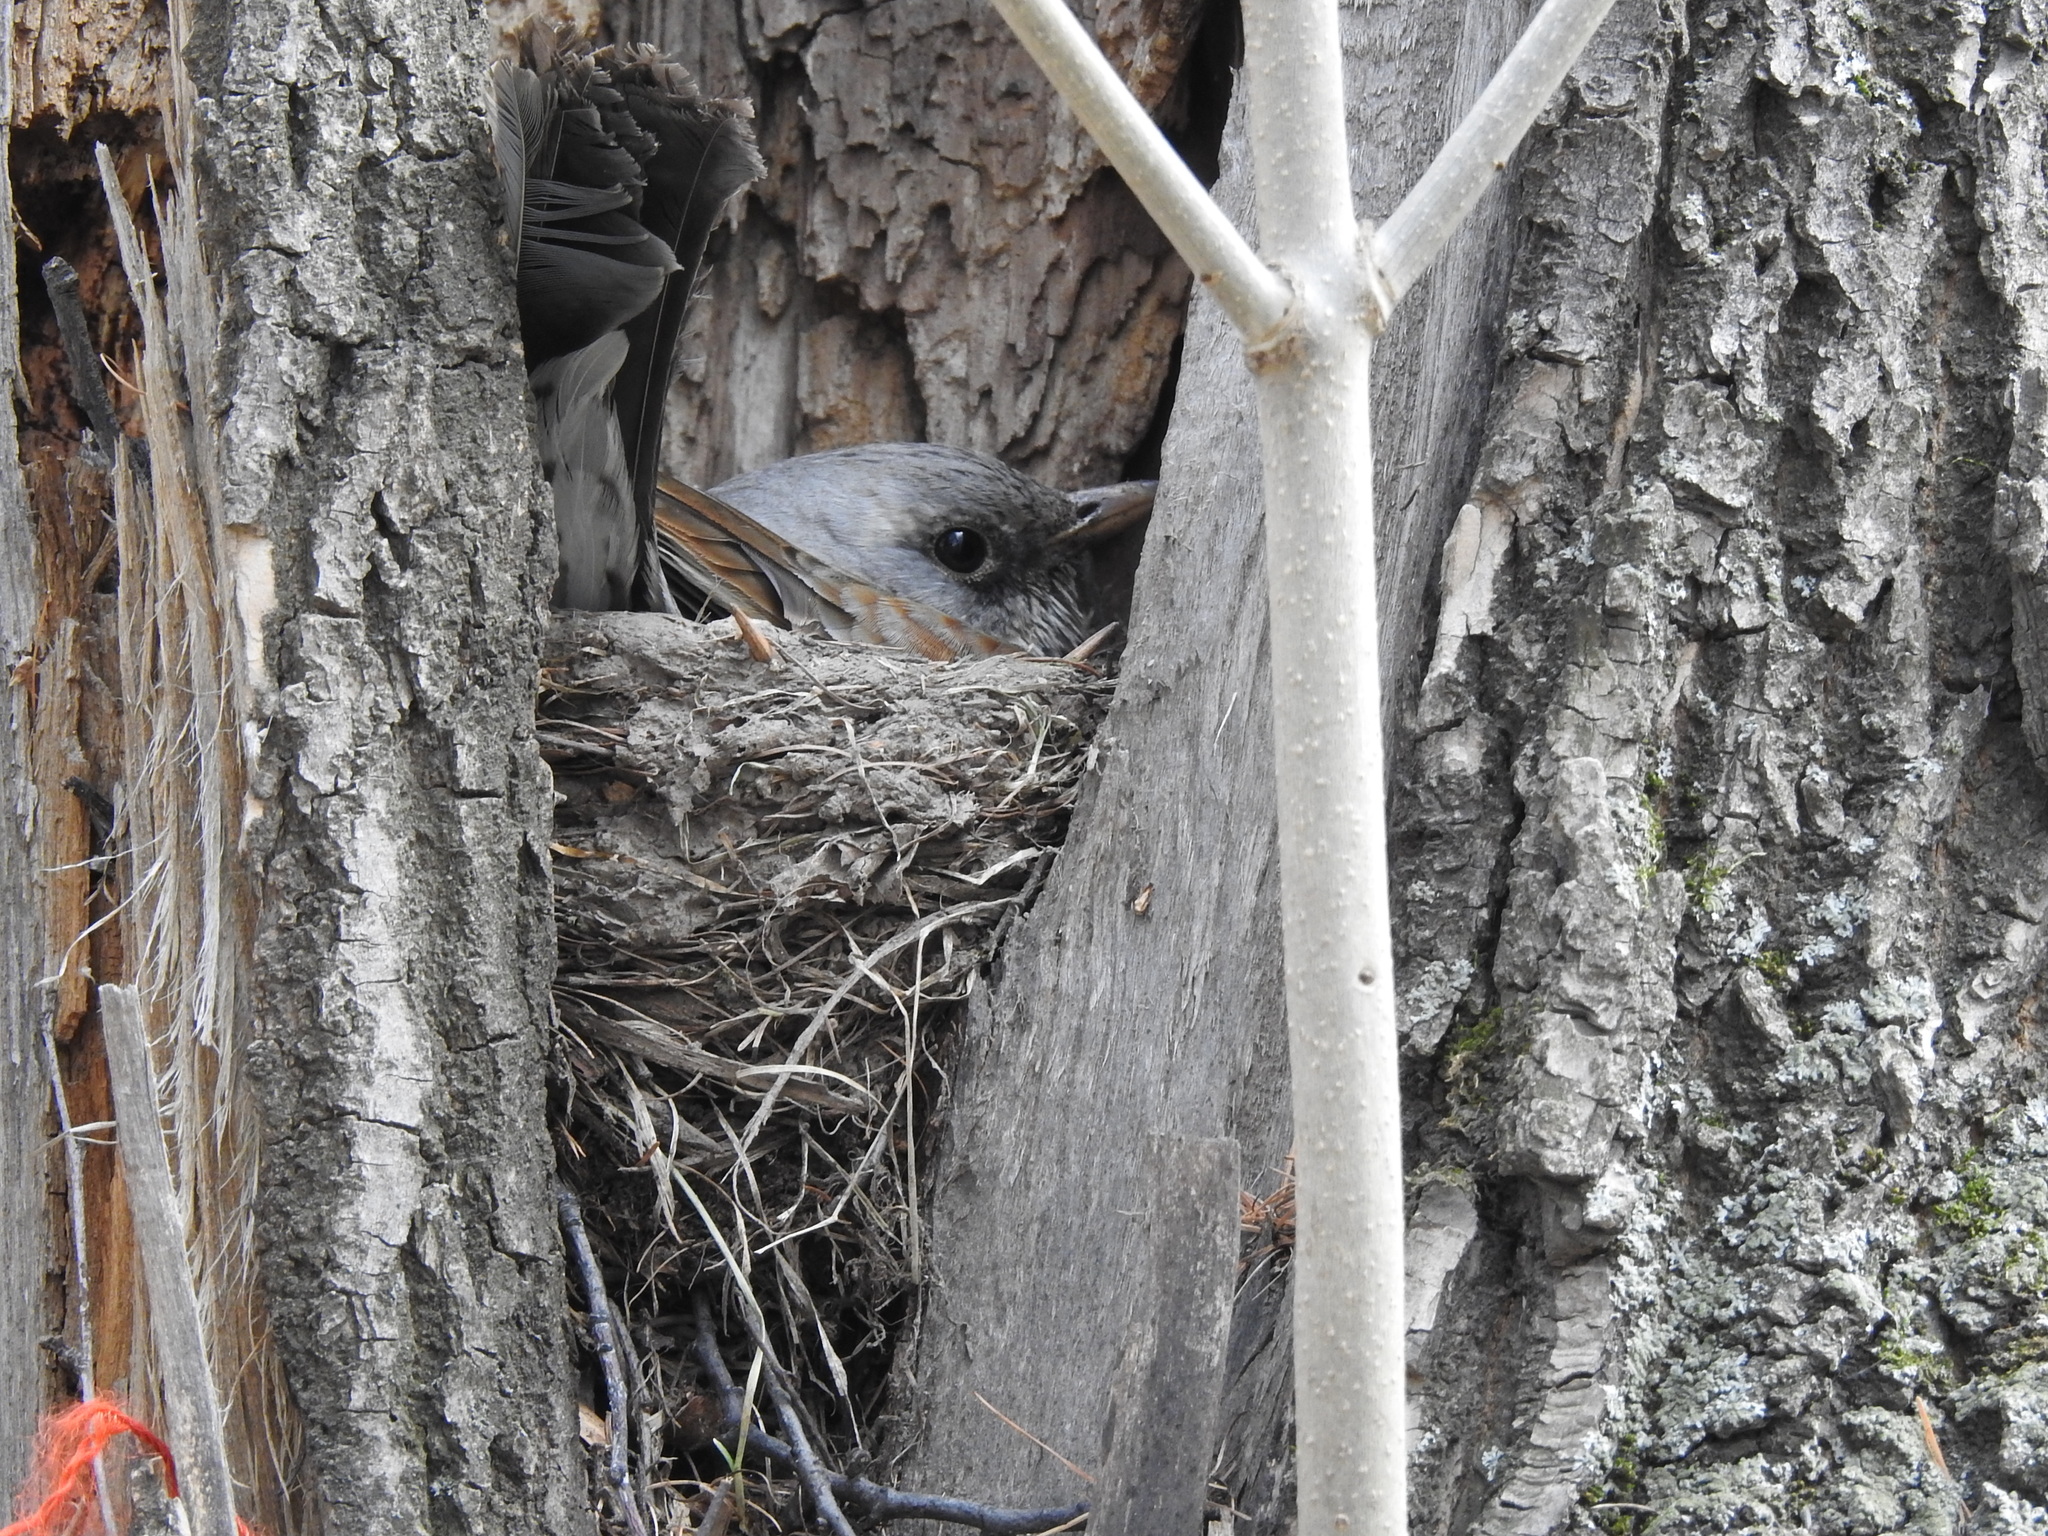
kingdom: Animalia
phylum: Chordata
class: Aves
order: Passeriformes
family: Turdidae
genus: Turdus
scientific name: Turdus pilaris
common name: Fieldfare
